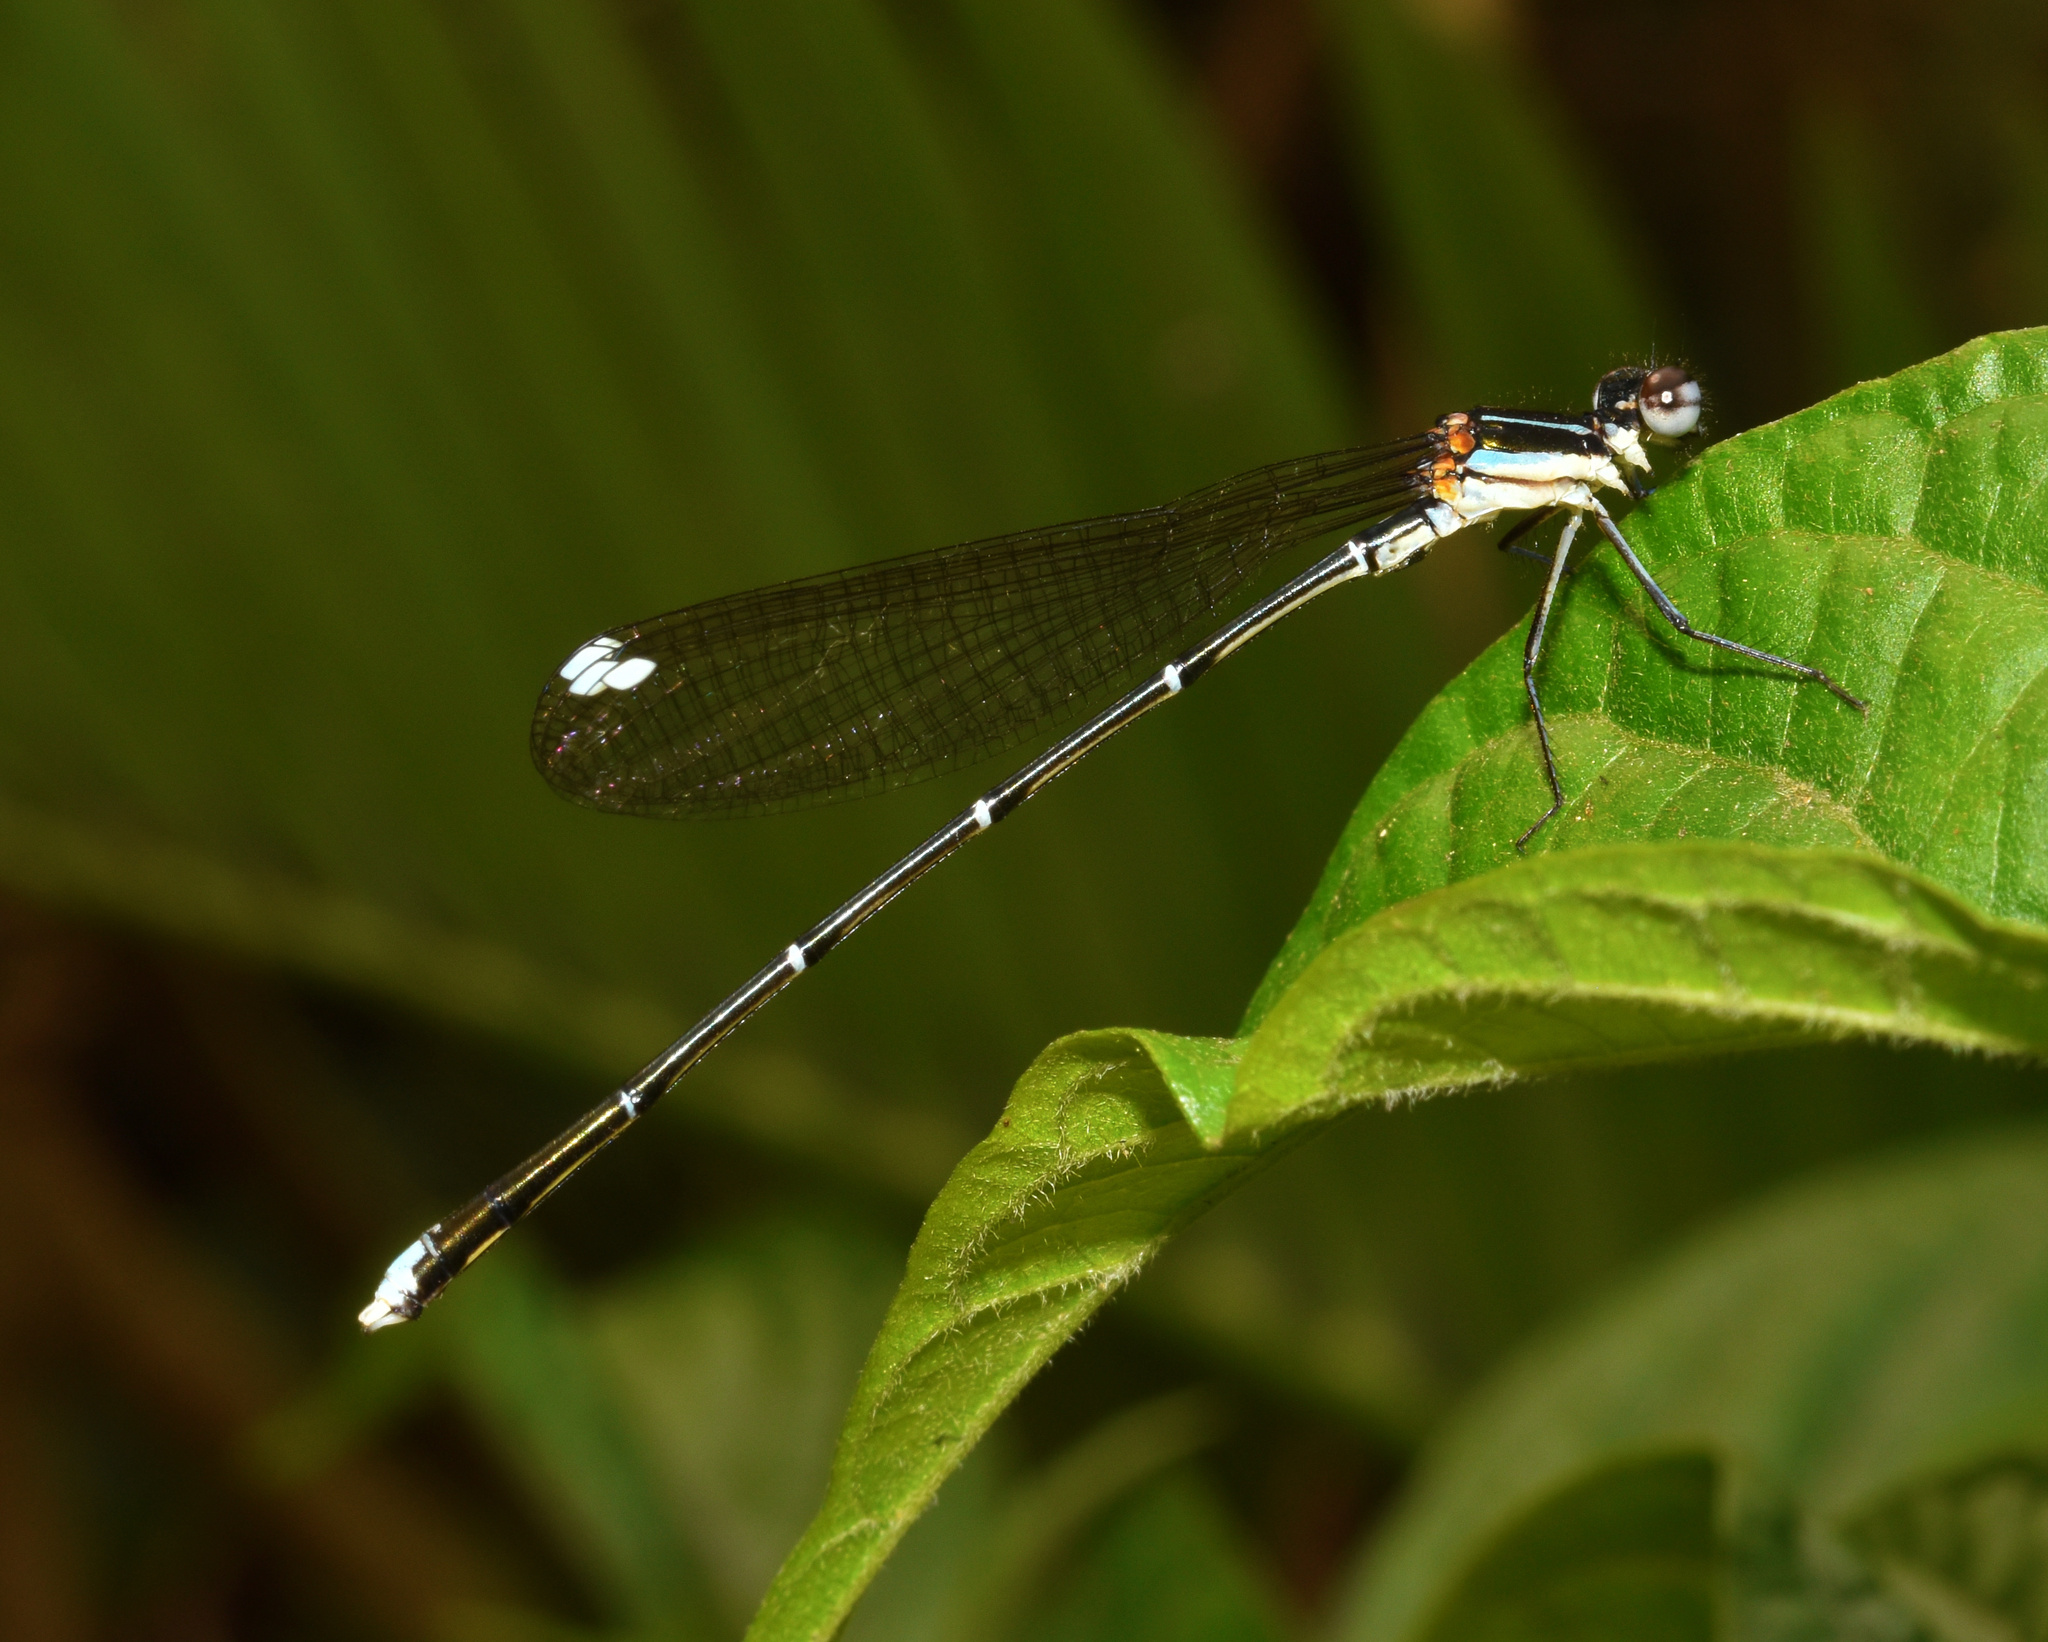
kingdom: Animalia
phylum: Arthropoda
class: Insecta
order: Odonata
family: Platycnemididae
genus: Allocnemis
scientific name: Allocnemis leucosticta
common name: Goldtail
